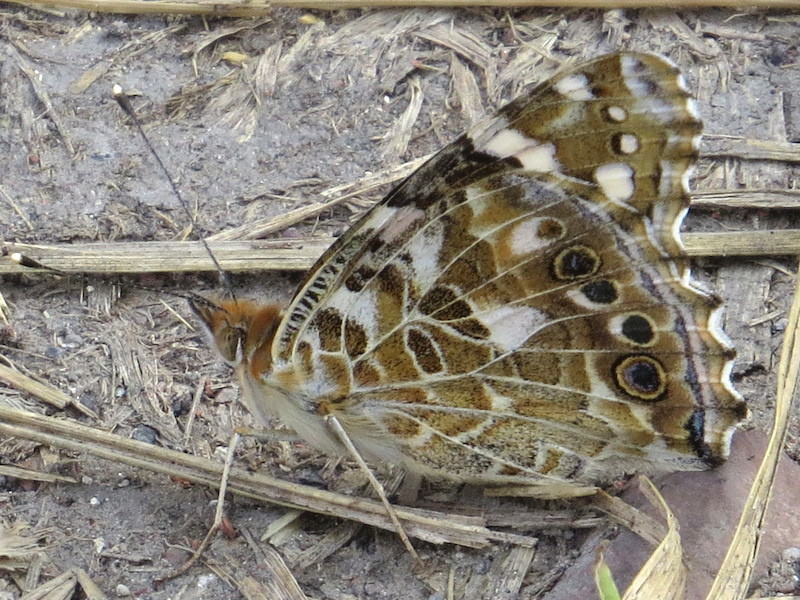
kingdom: Animalia
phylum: Arthropoda
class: Insecta
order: Lepidoptera
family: Nymphalidae
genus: Vanessa
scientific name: Vanessa cardui
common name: Painted lady
